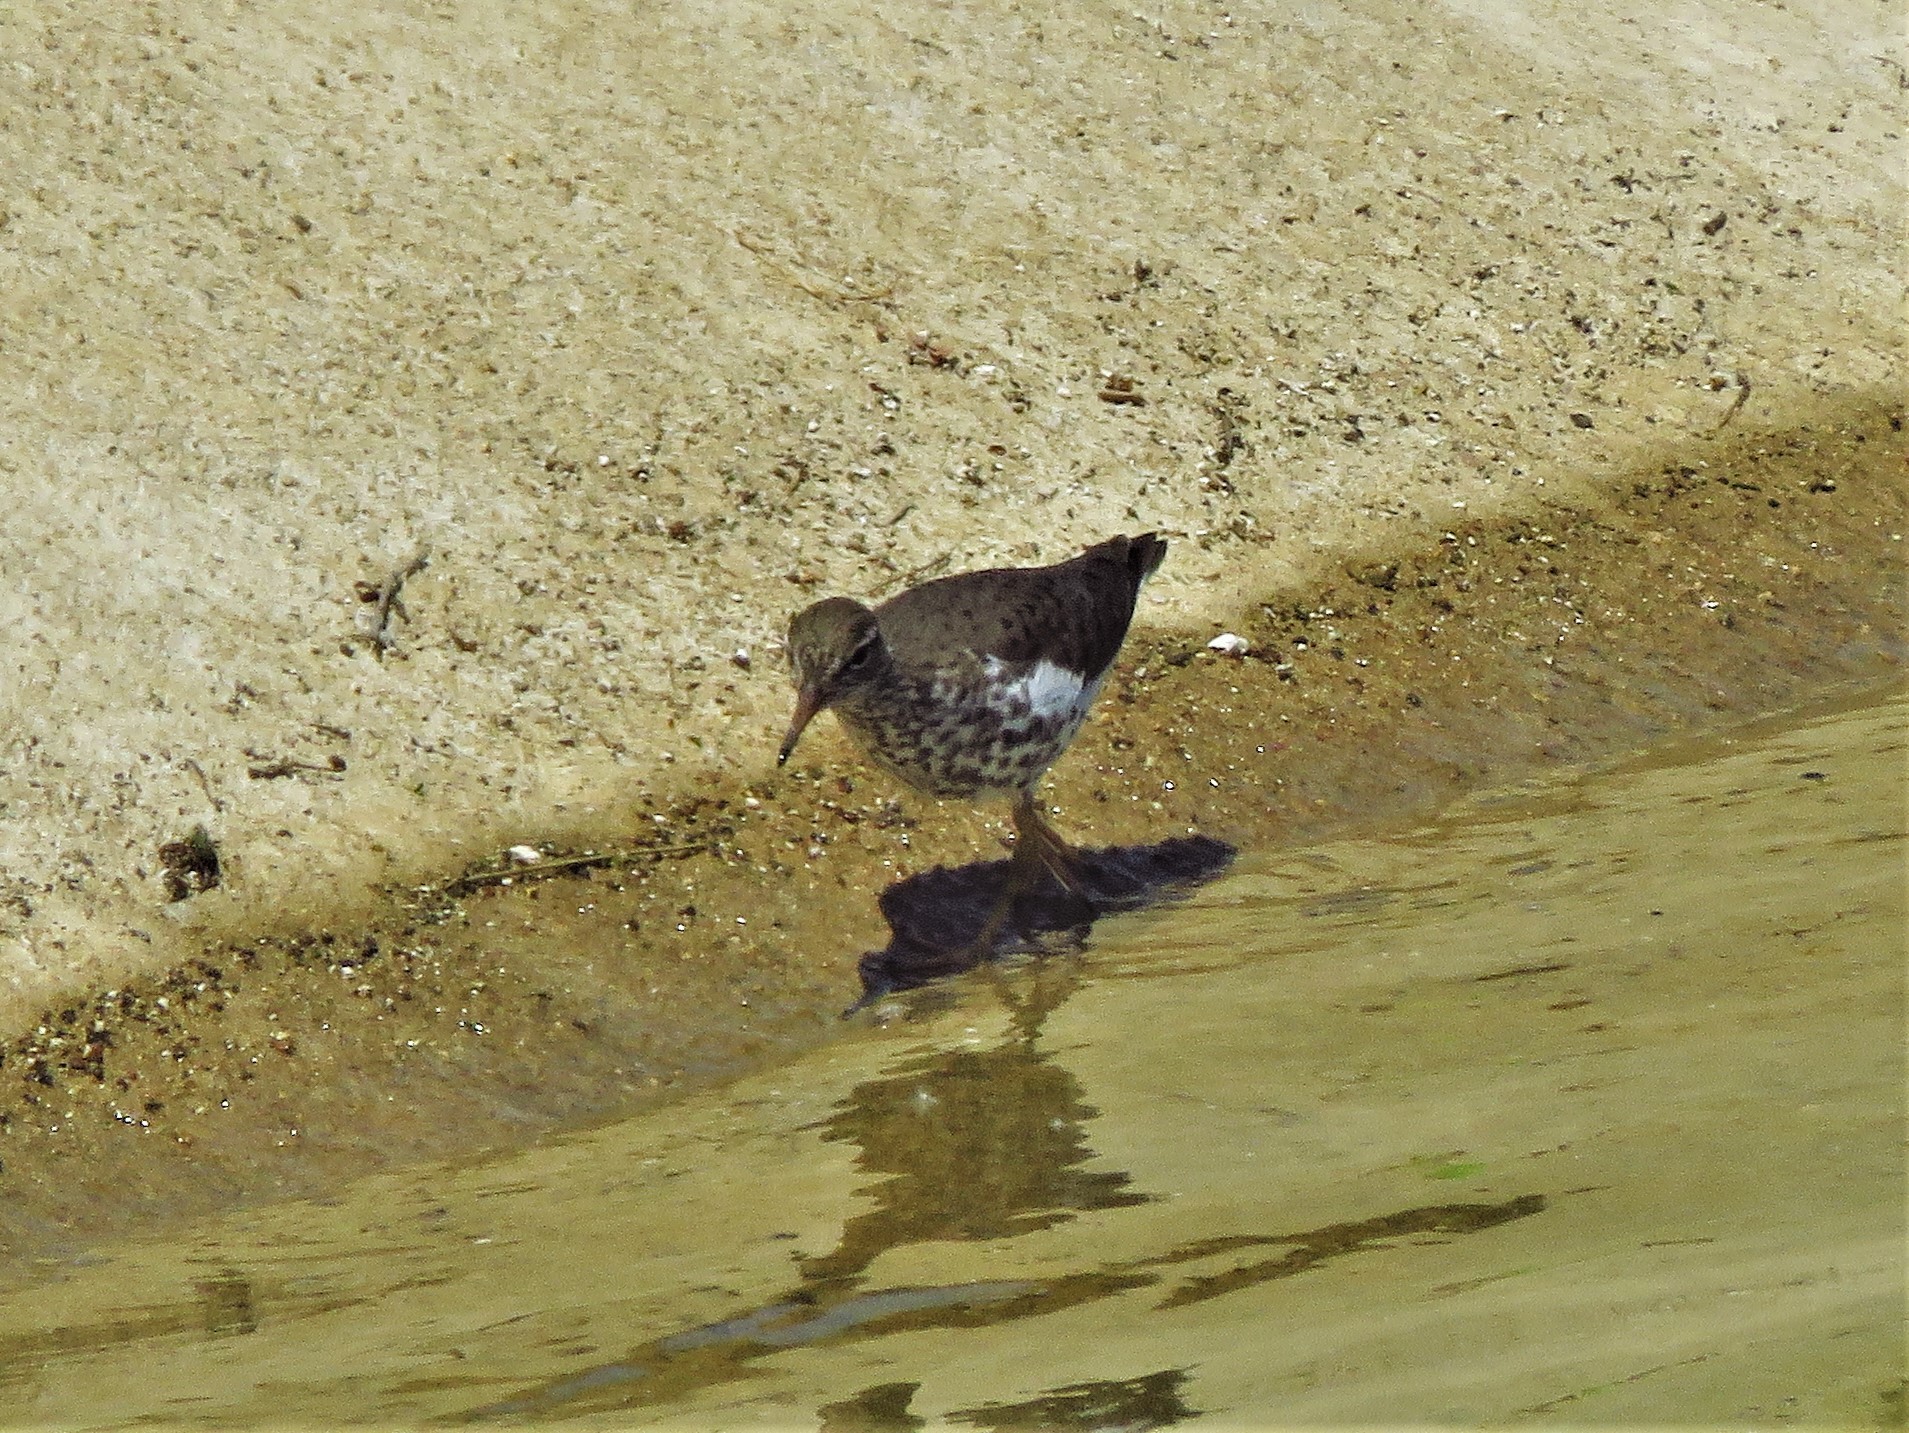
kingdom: Animalia
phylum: Chordata
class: Aves
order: Charadriiformes
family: Scolopacidae
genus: Actitis
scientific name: Actitis macularius
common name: Spotted sandpiper
